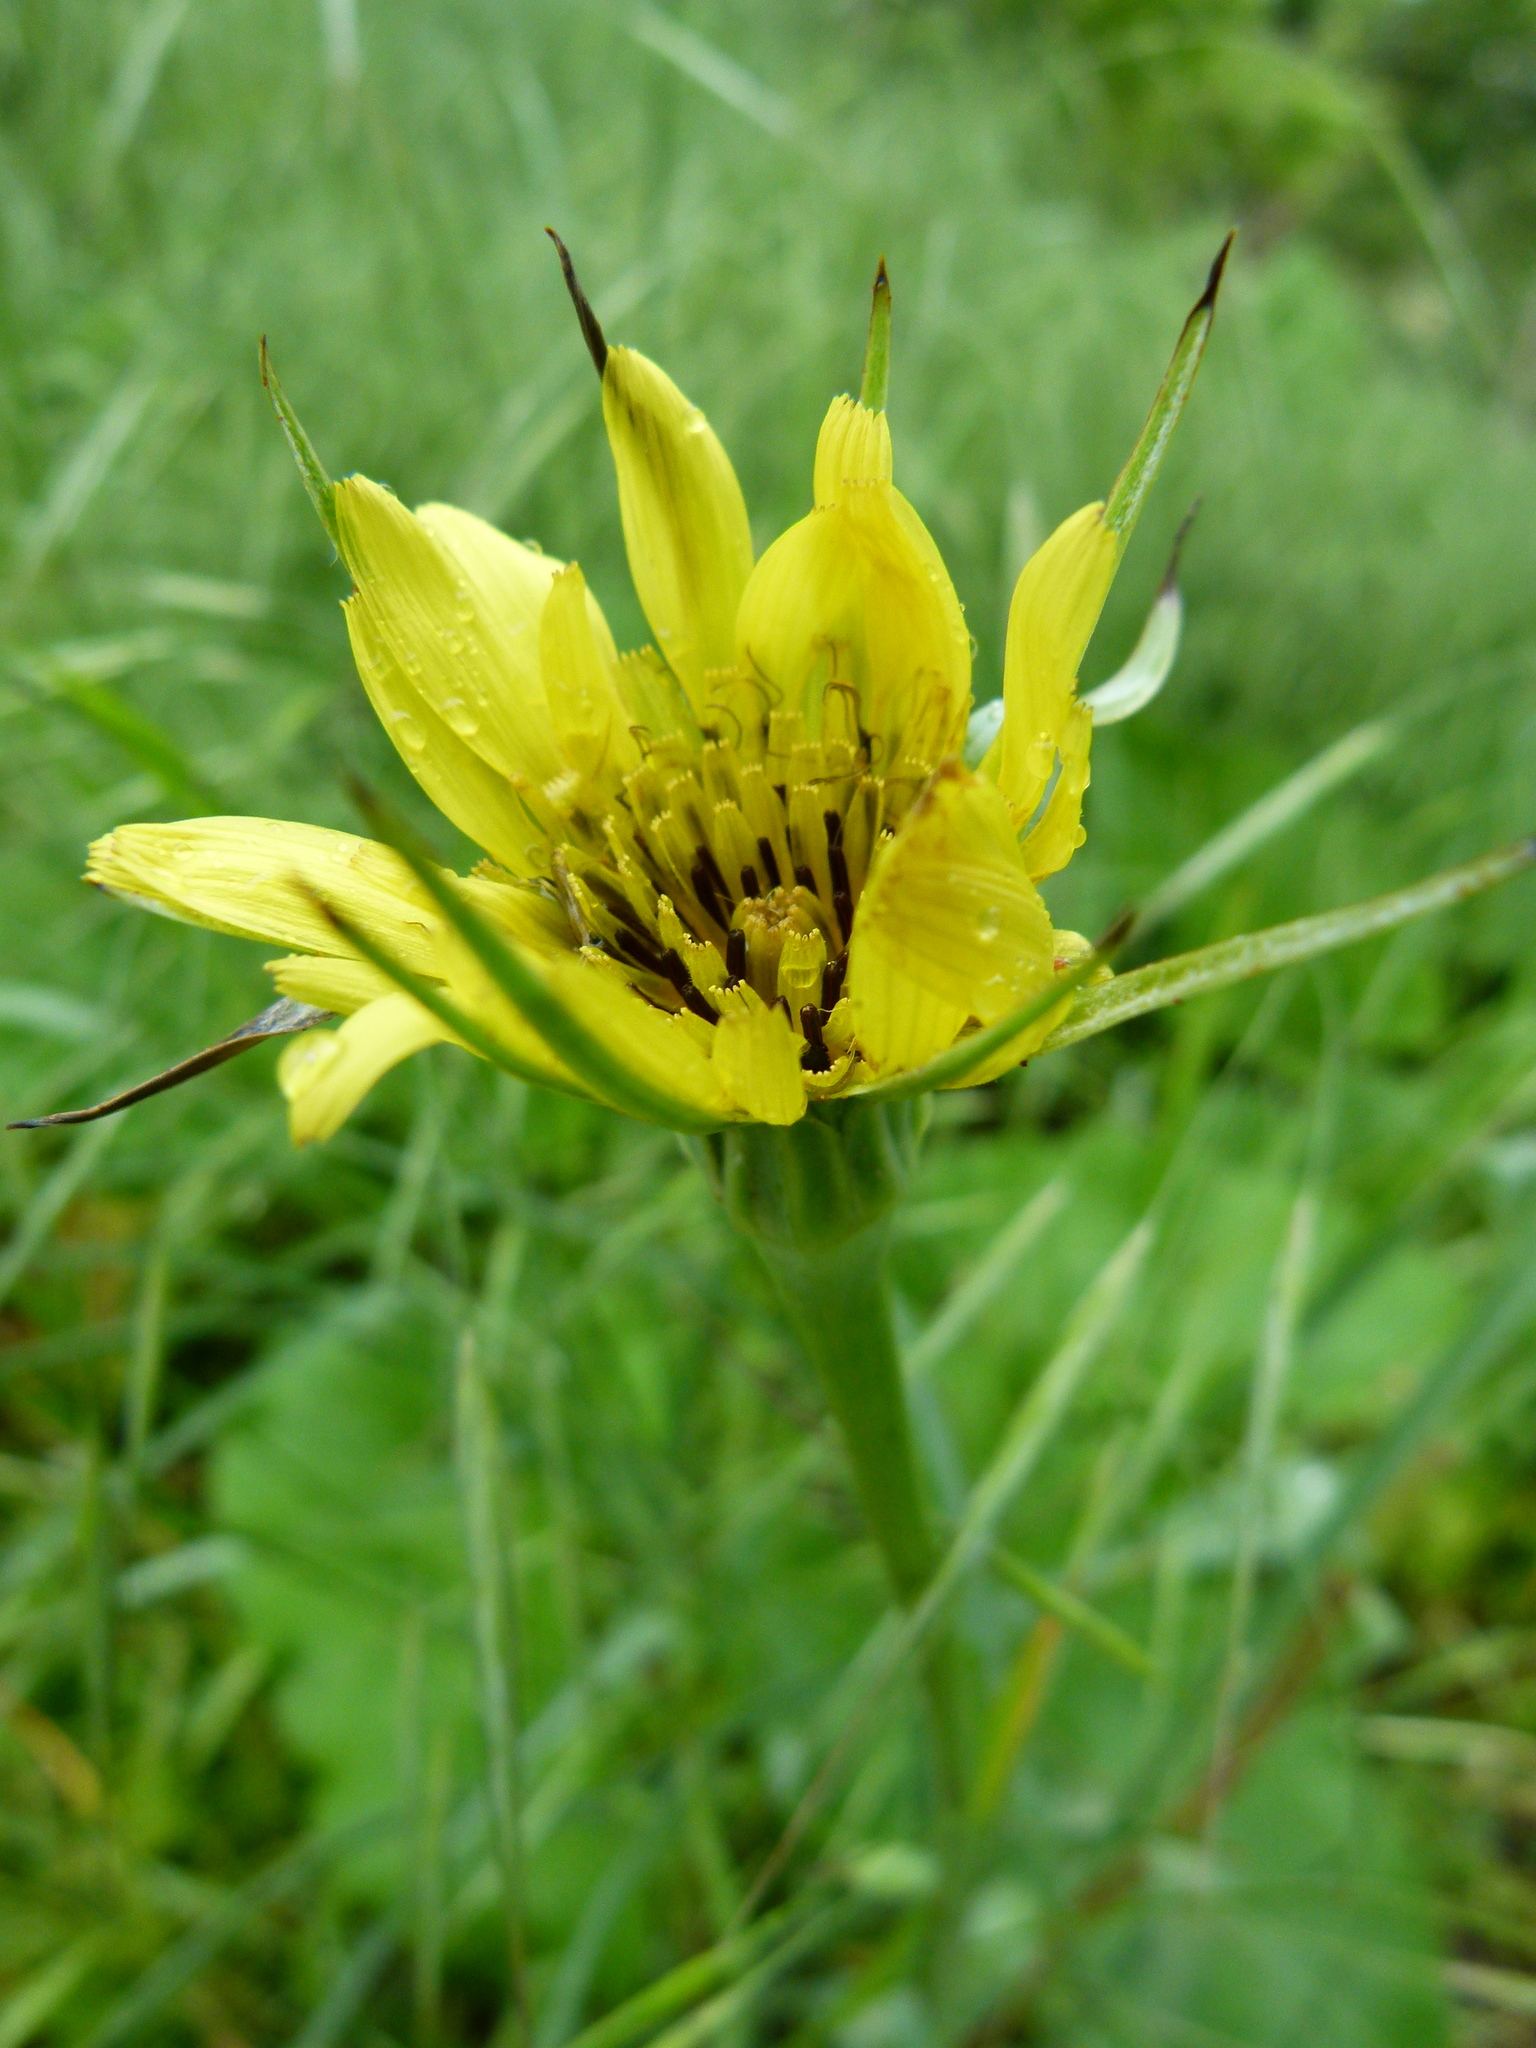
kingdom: Plantae
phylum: Tracheophyta
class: Magnoliopsida
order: Asterales
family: Asteraceae
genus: Tragopogon
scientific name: Tragopogon dubius
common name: Yellow salsify
